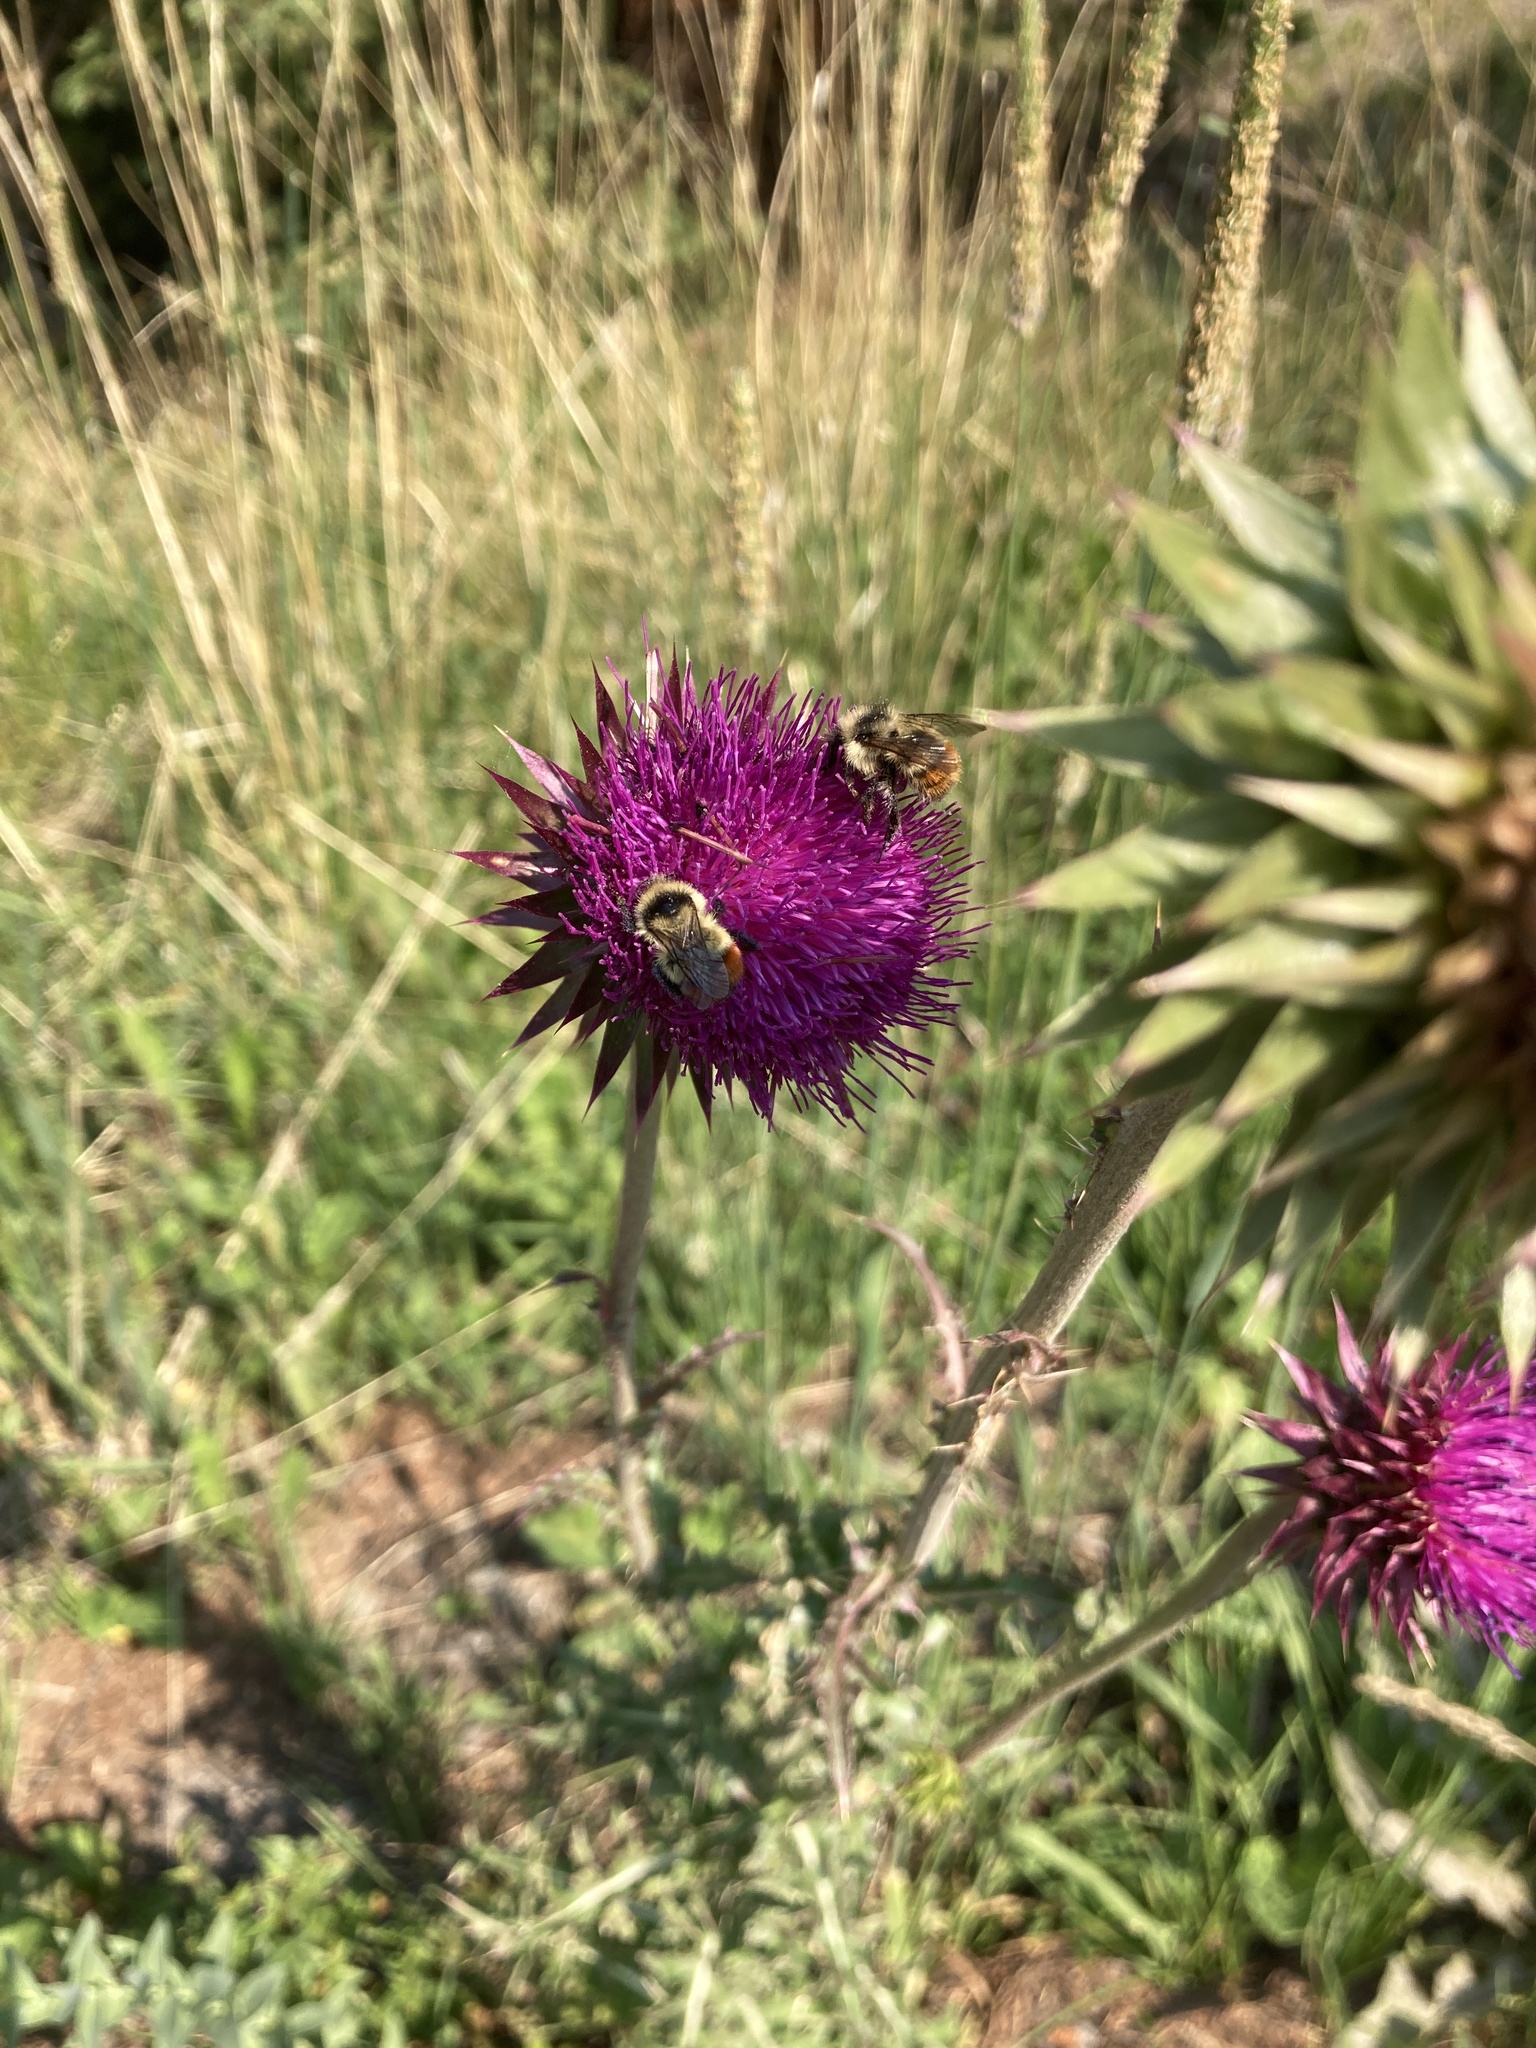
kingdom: Animalia
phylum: Arthropoda
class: Insecta
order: Hymenoptera
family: Apidae
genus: Pyrobombus
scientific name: Pyrobombus
